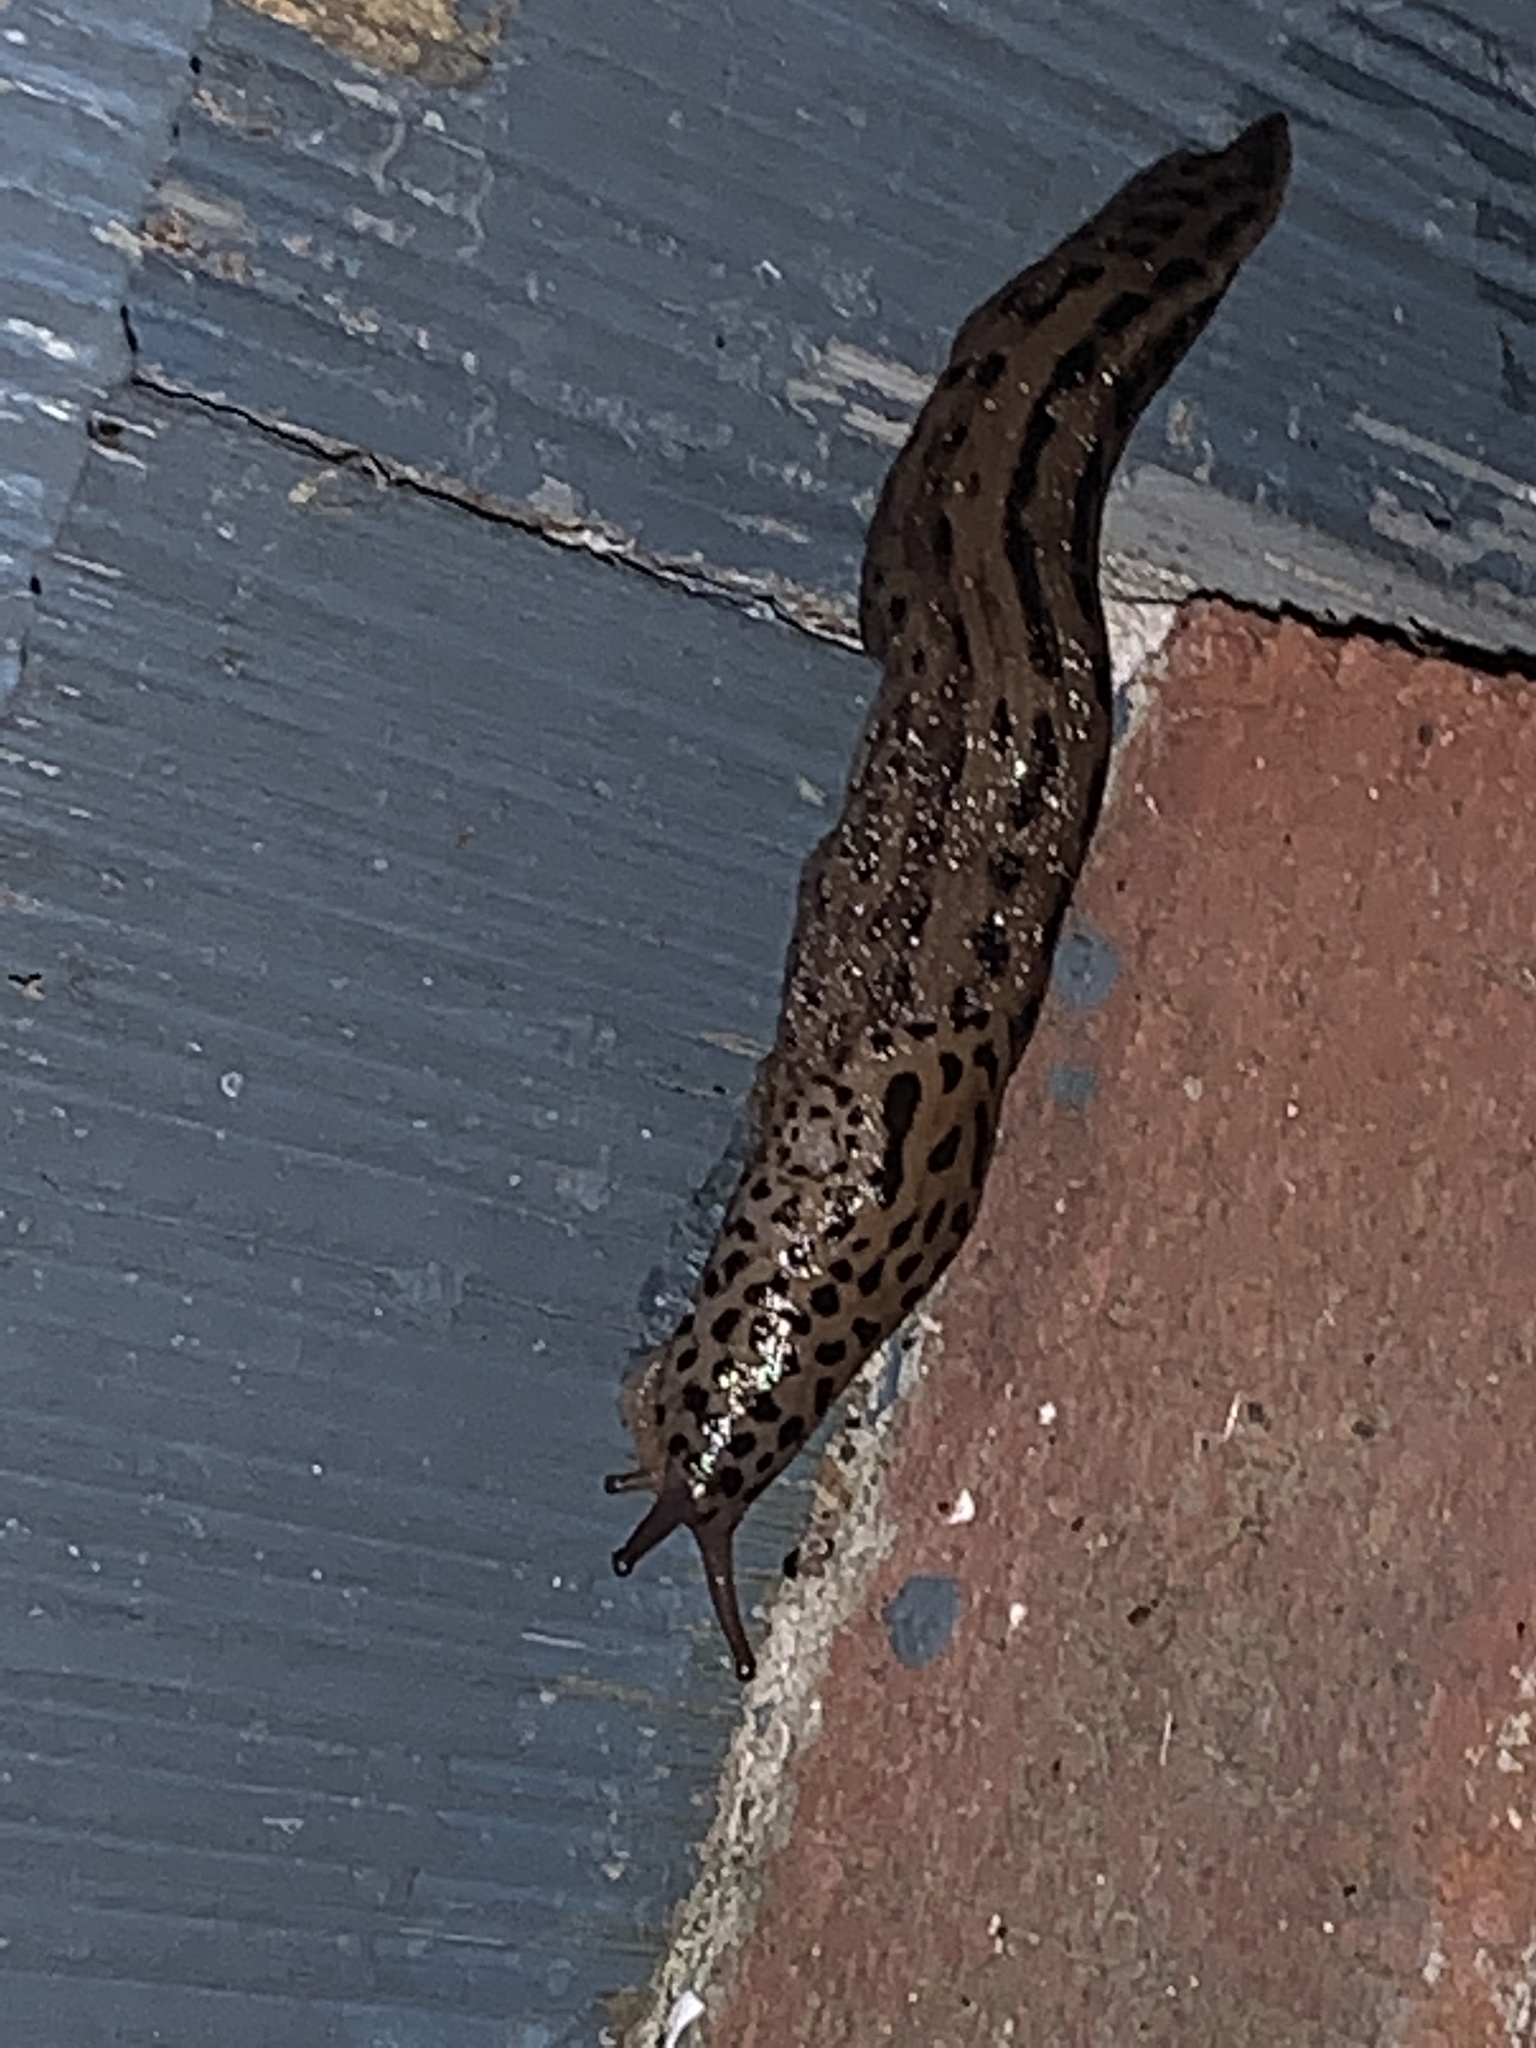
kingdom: Animalia
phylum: Mollusca
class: Gastropoda
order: Stylommatophora
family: Limacidae
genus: Limax
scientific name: Limax maximus
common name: Great grey slug
